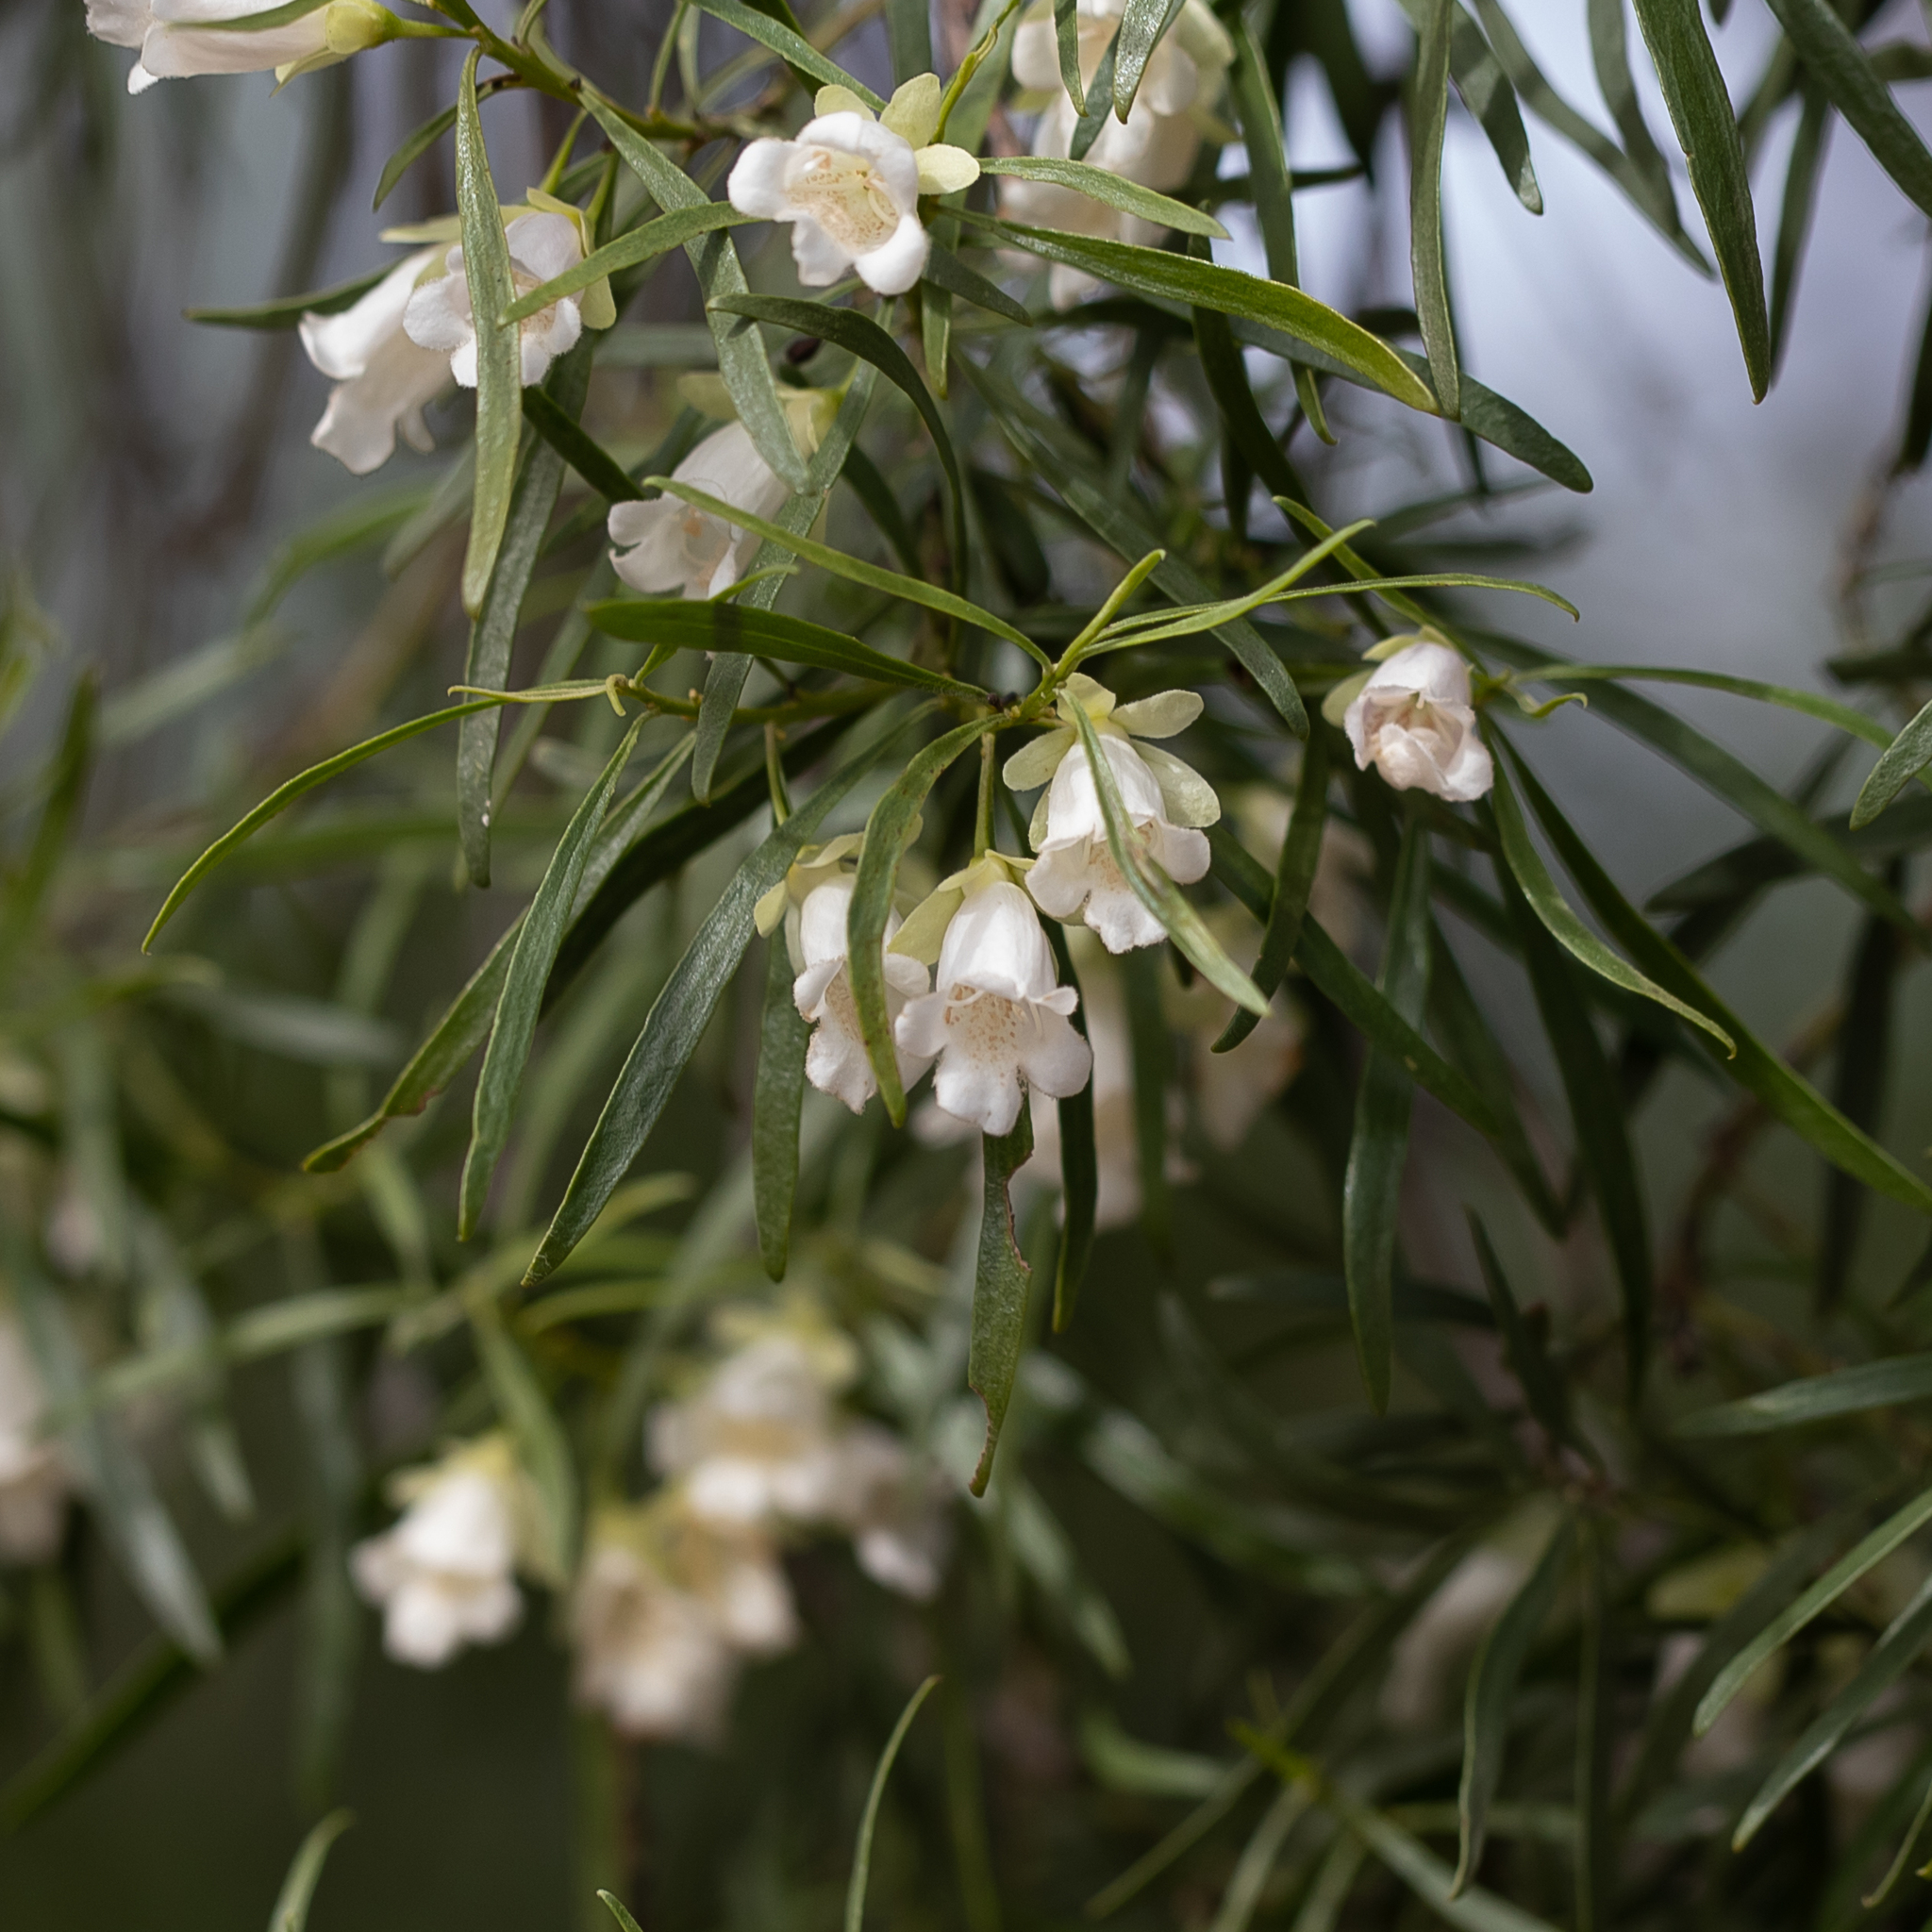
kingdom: Plantae
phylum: Tracheophyta
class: Magnoliopsida
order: Lamiales
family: Scrophulariaceae
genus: Eremophila
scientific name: Eremophila mitchellii
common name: Bastard-sandalwood
